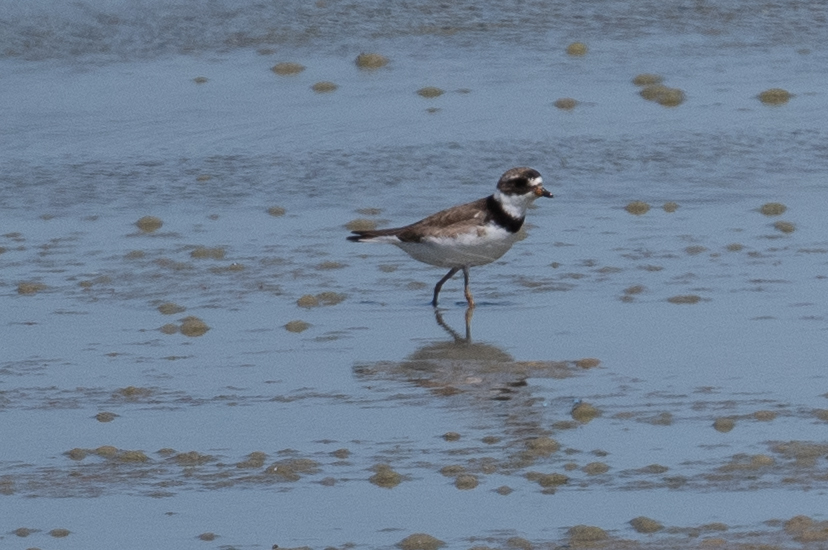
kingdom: Animalia
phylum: Chordata
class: Aves
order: Charadriiformes
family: Charadriidae
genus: Charadrius
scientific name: Charadrius semipalmatus
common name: Semipalmated plover
